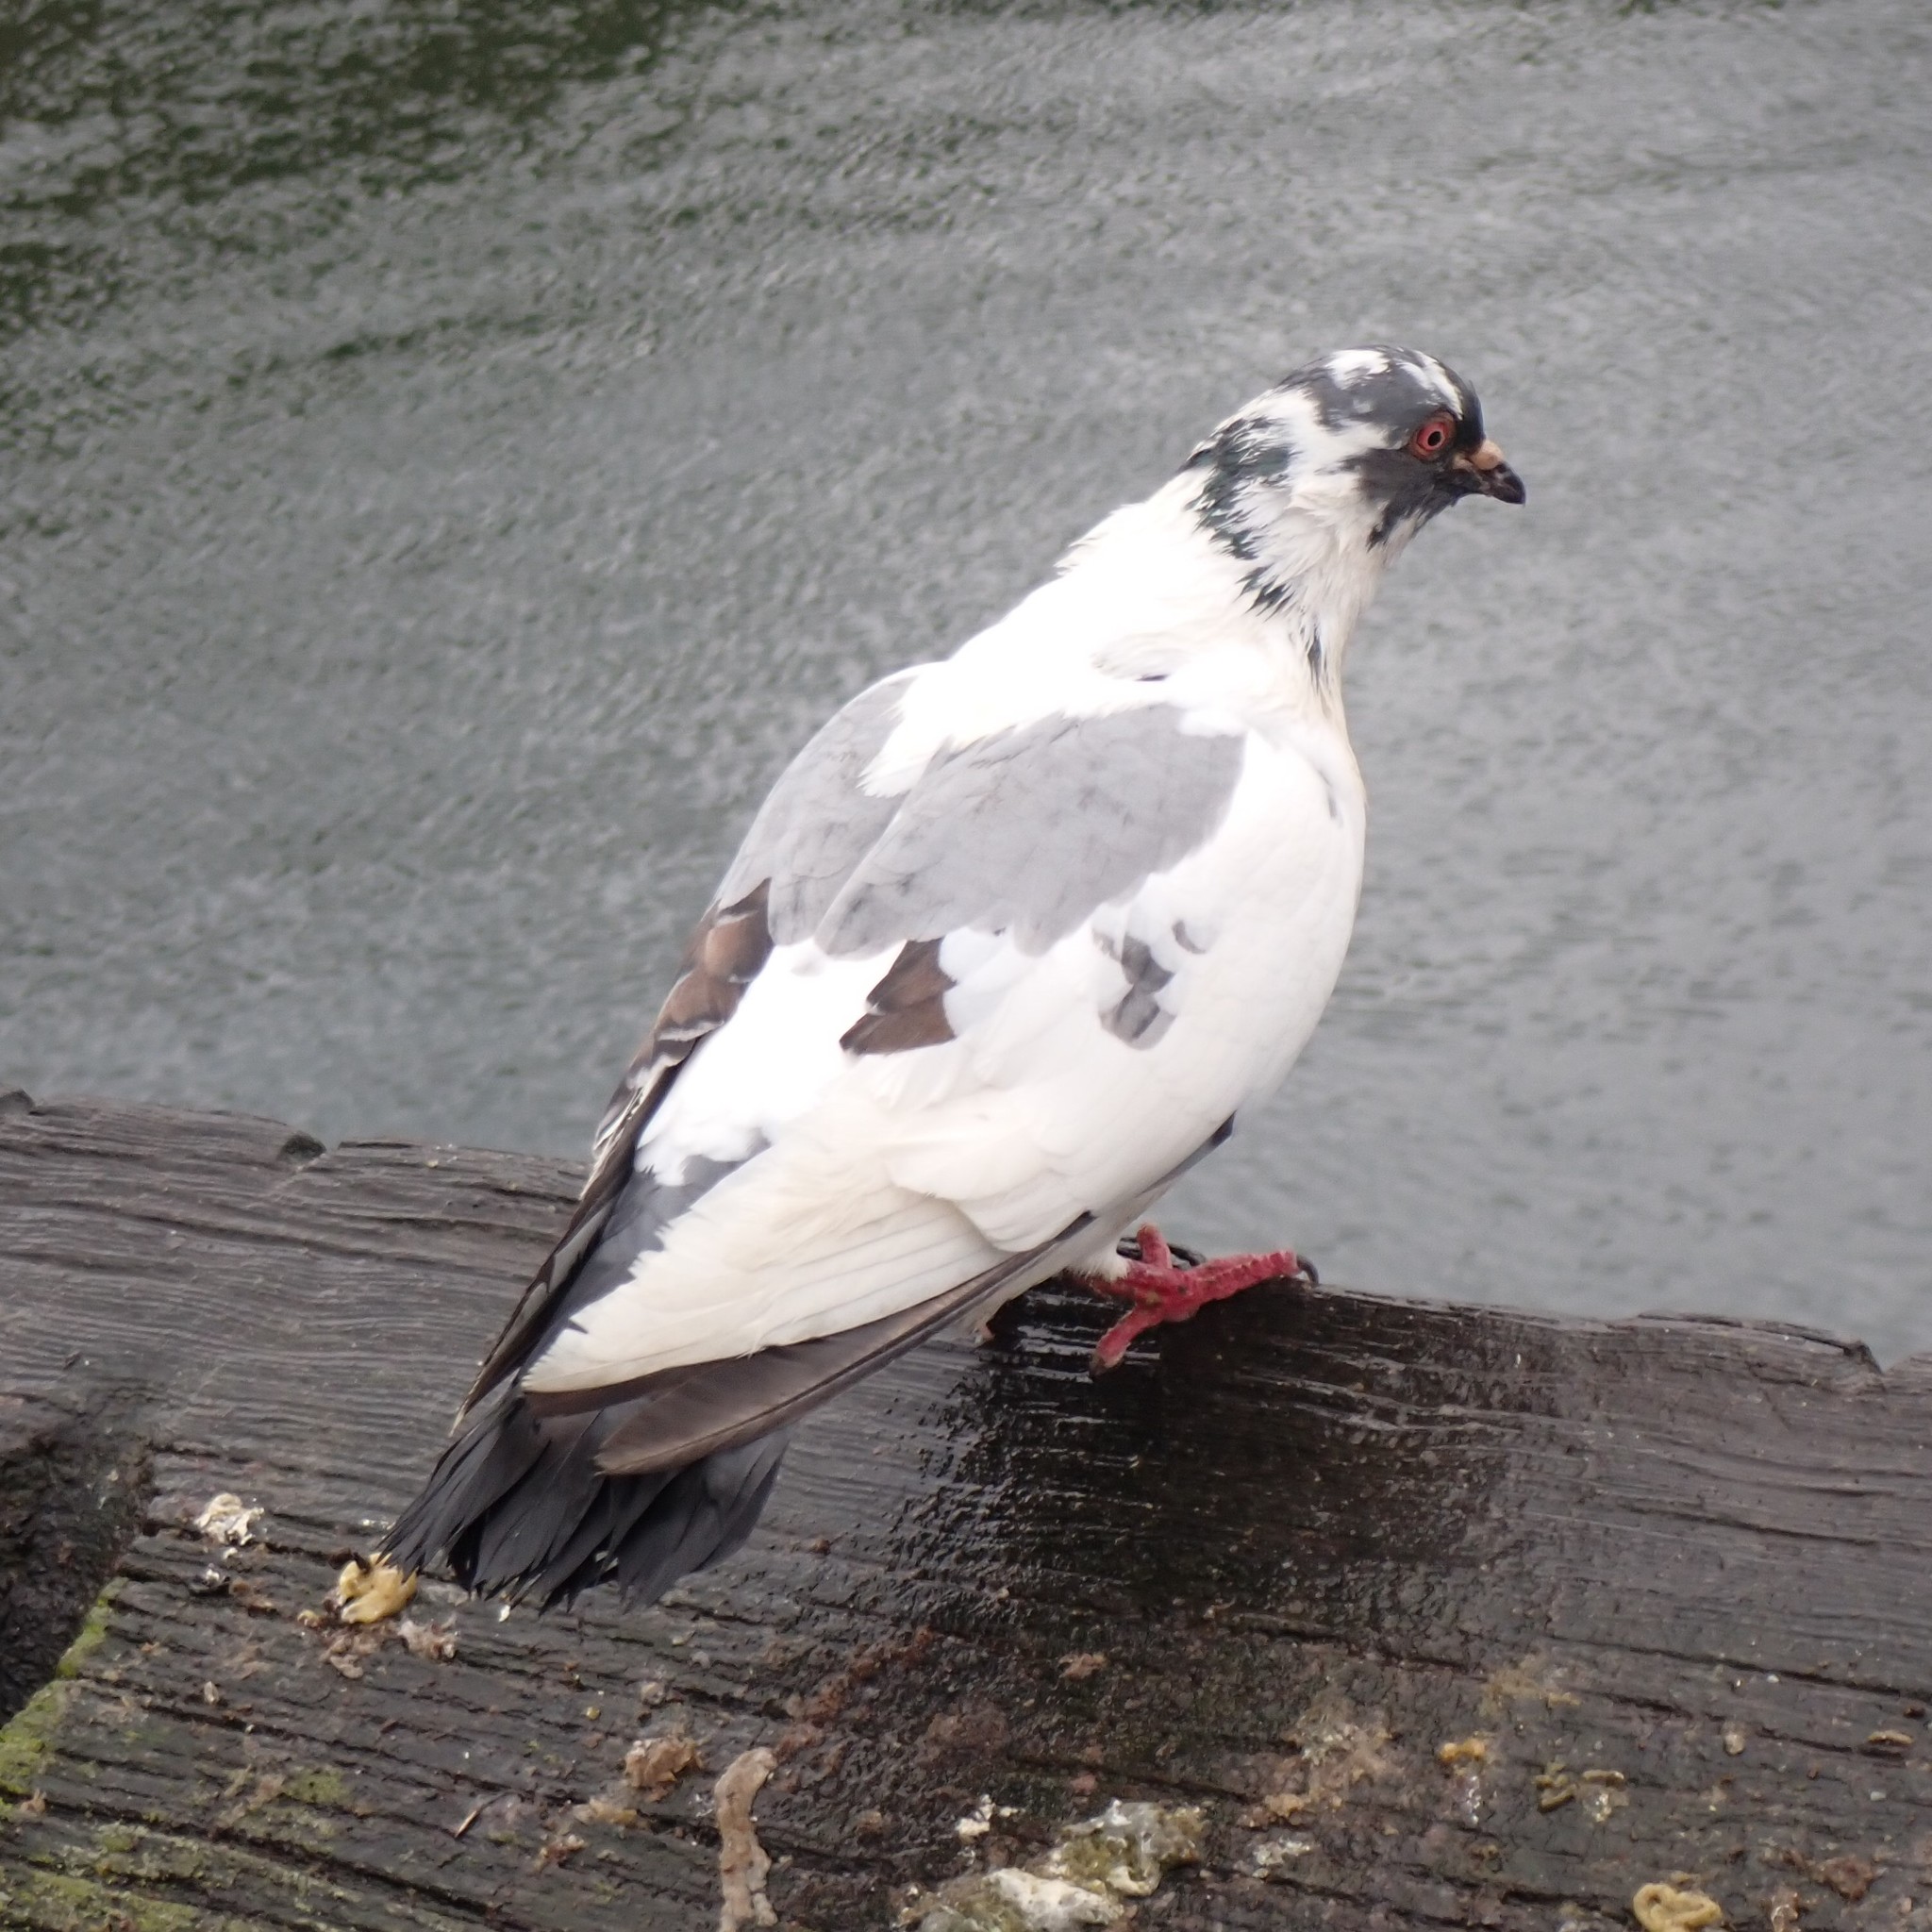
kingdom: Animalia
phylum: Chordata
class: Aves
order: Columbiformes
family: Columbidae
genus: Columba
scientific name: Columba livia
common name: Rock pigeon
